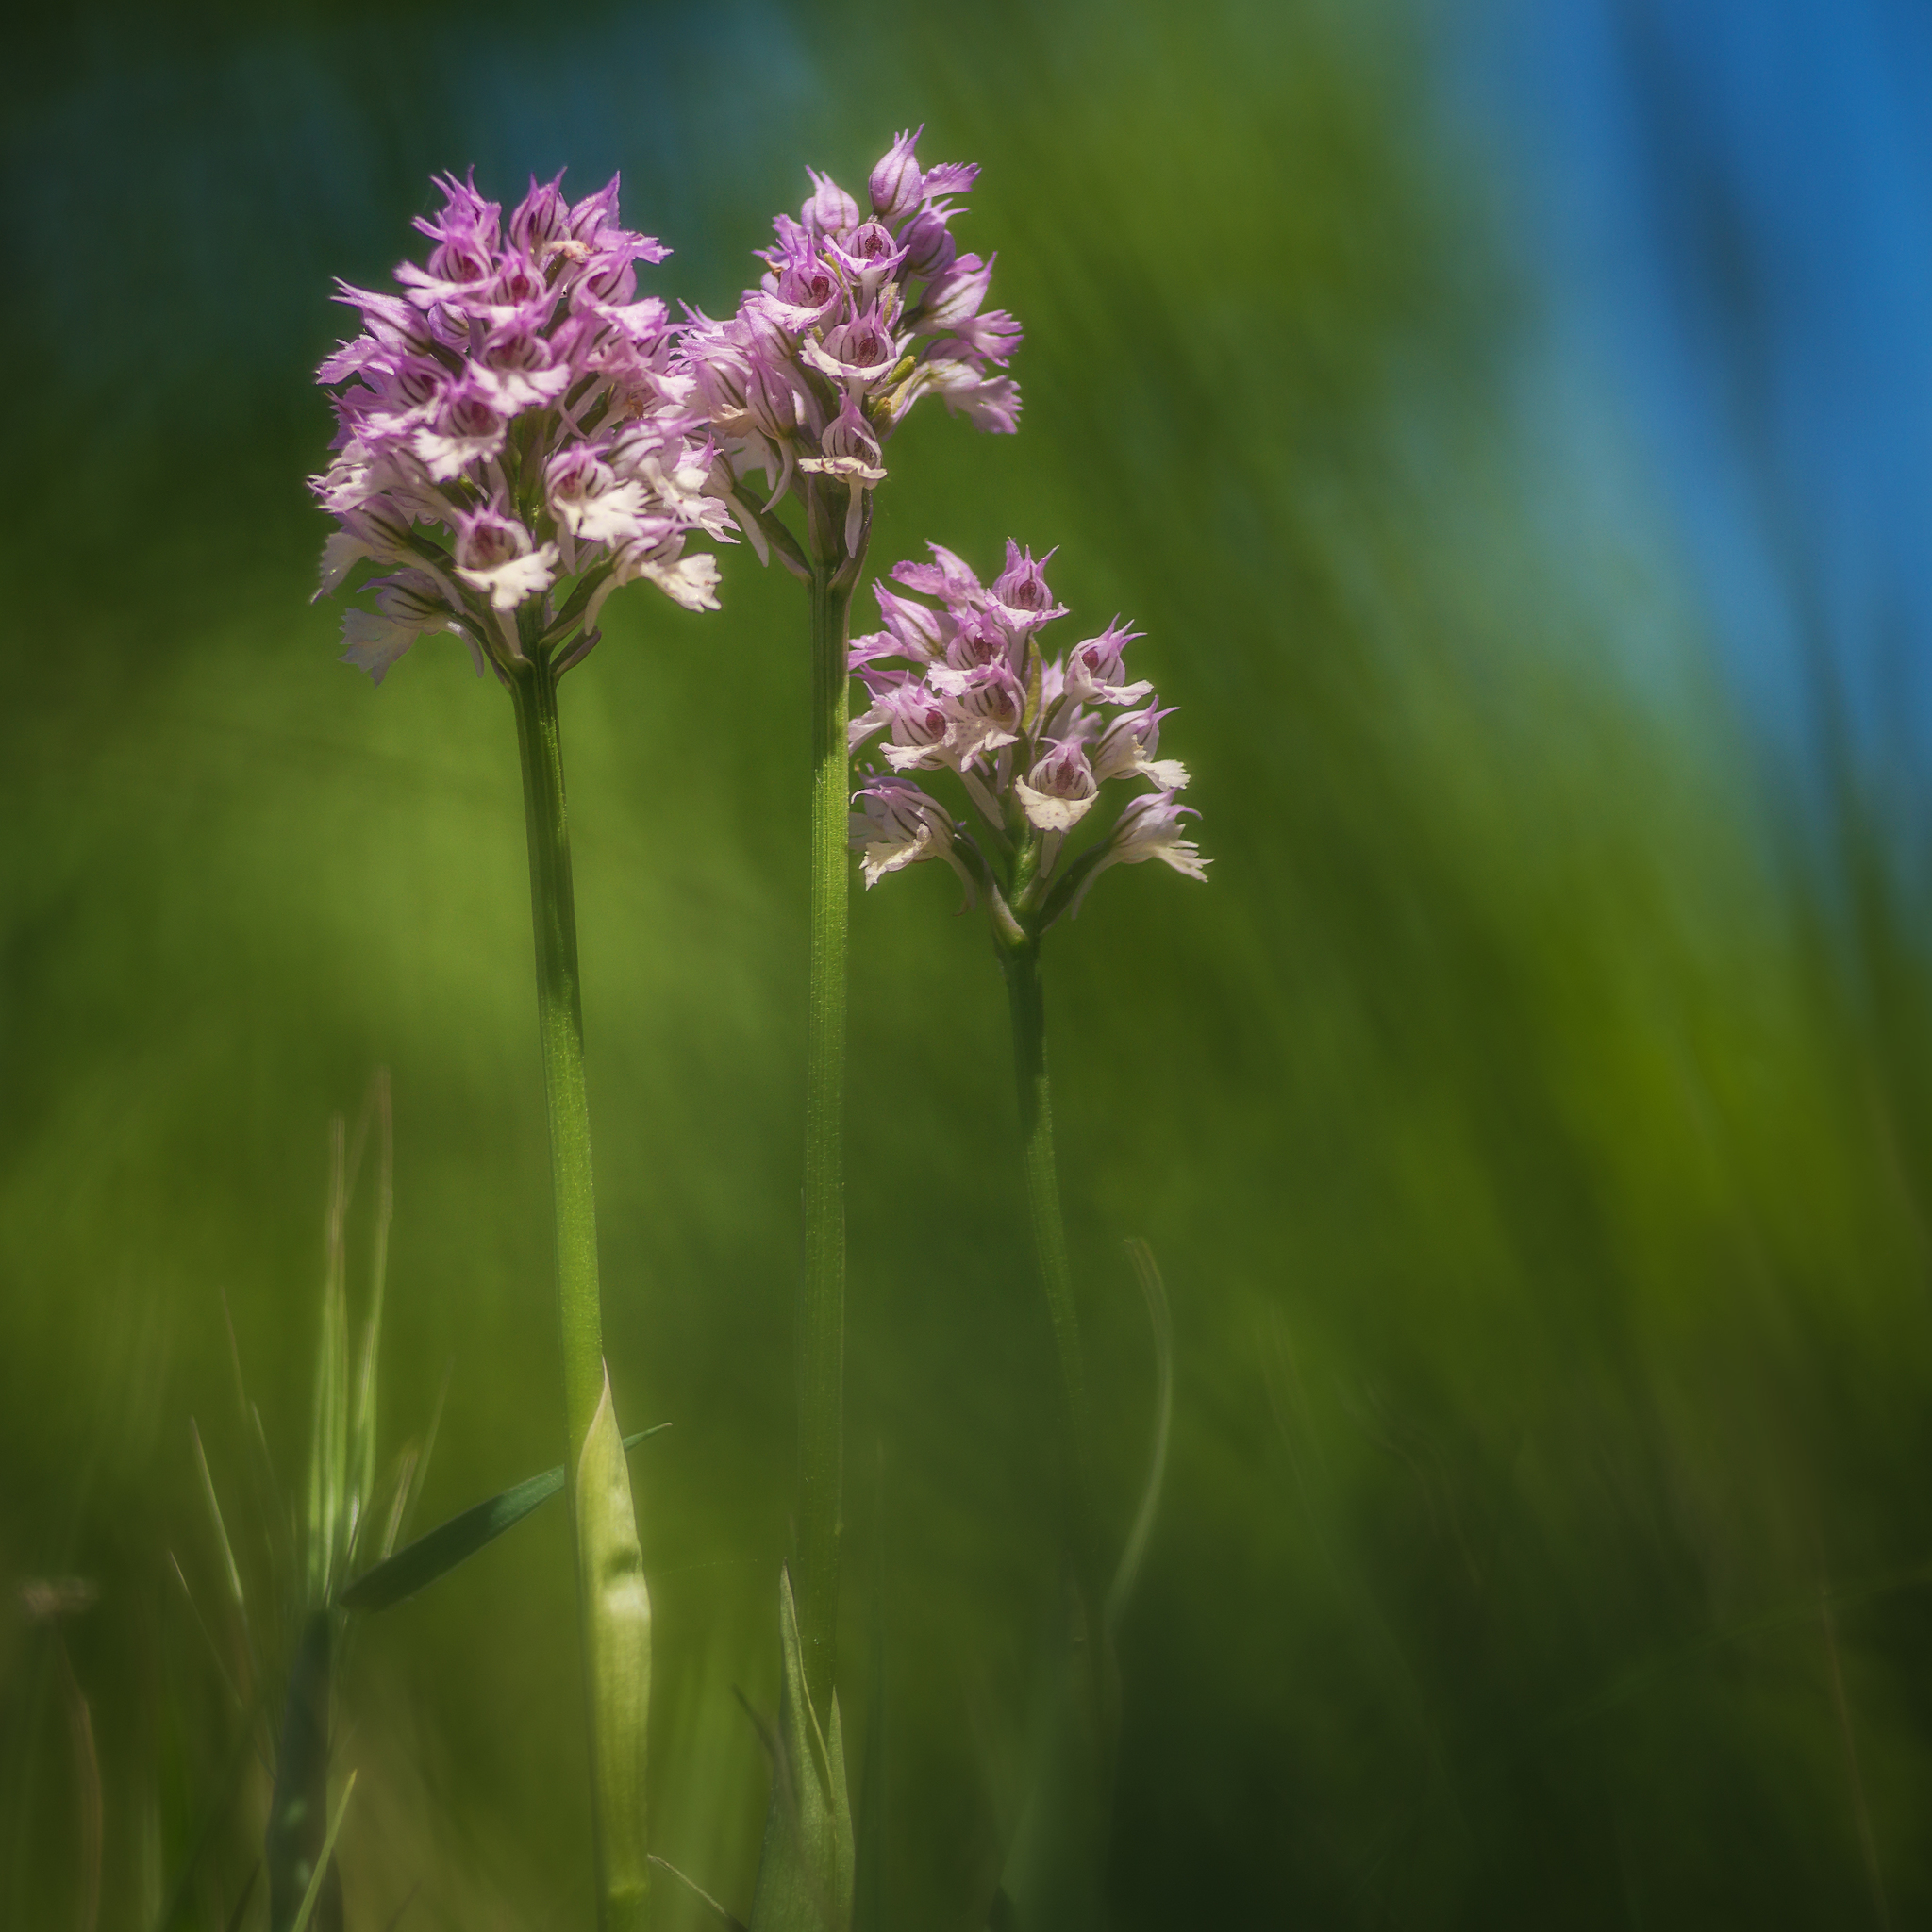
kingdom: Plantae
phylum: Tracheophyta
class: Liliopsida
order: Asparagales
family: Orchidaceae
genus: Neotinea
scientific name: Neotinea tridentata
